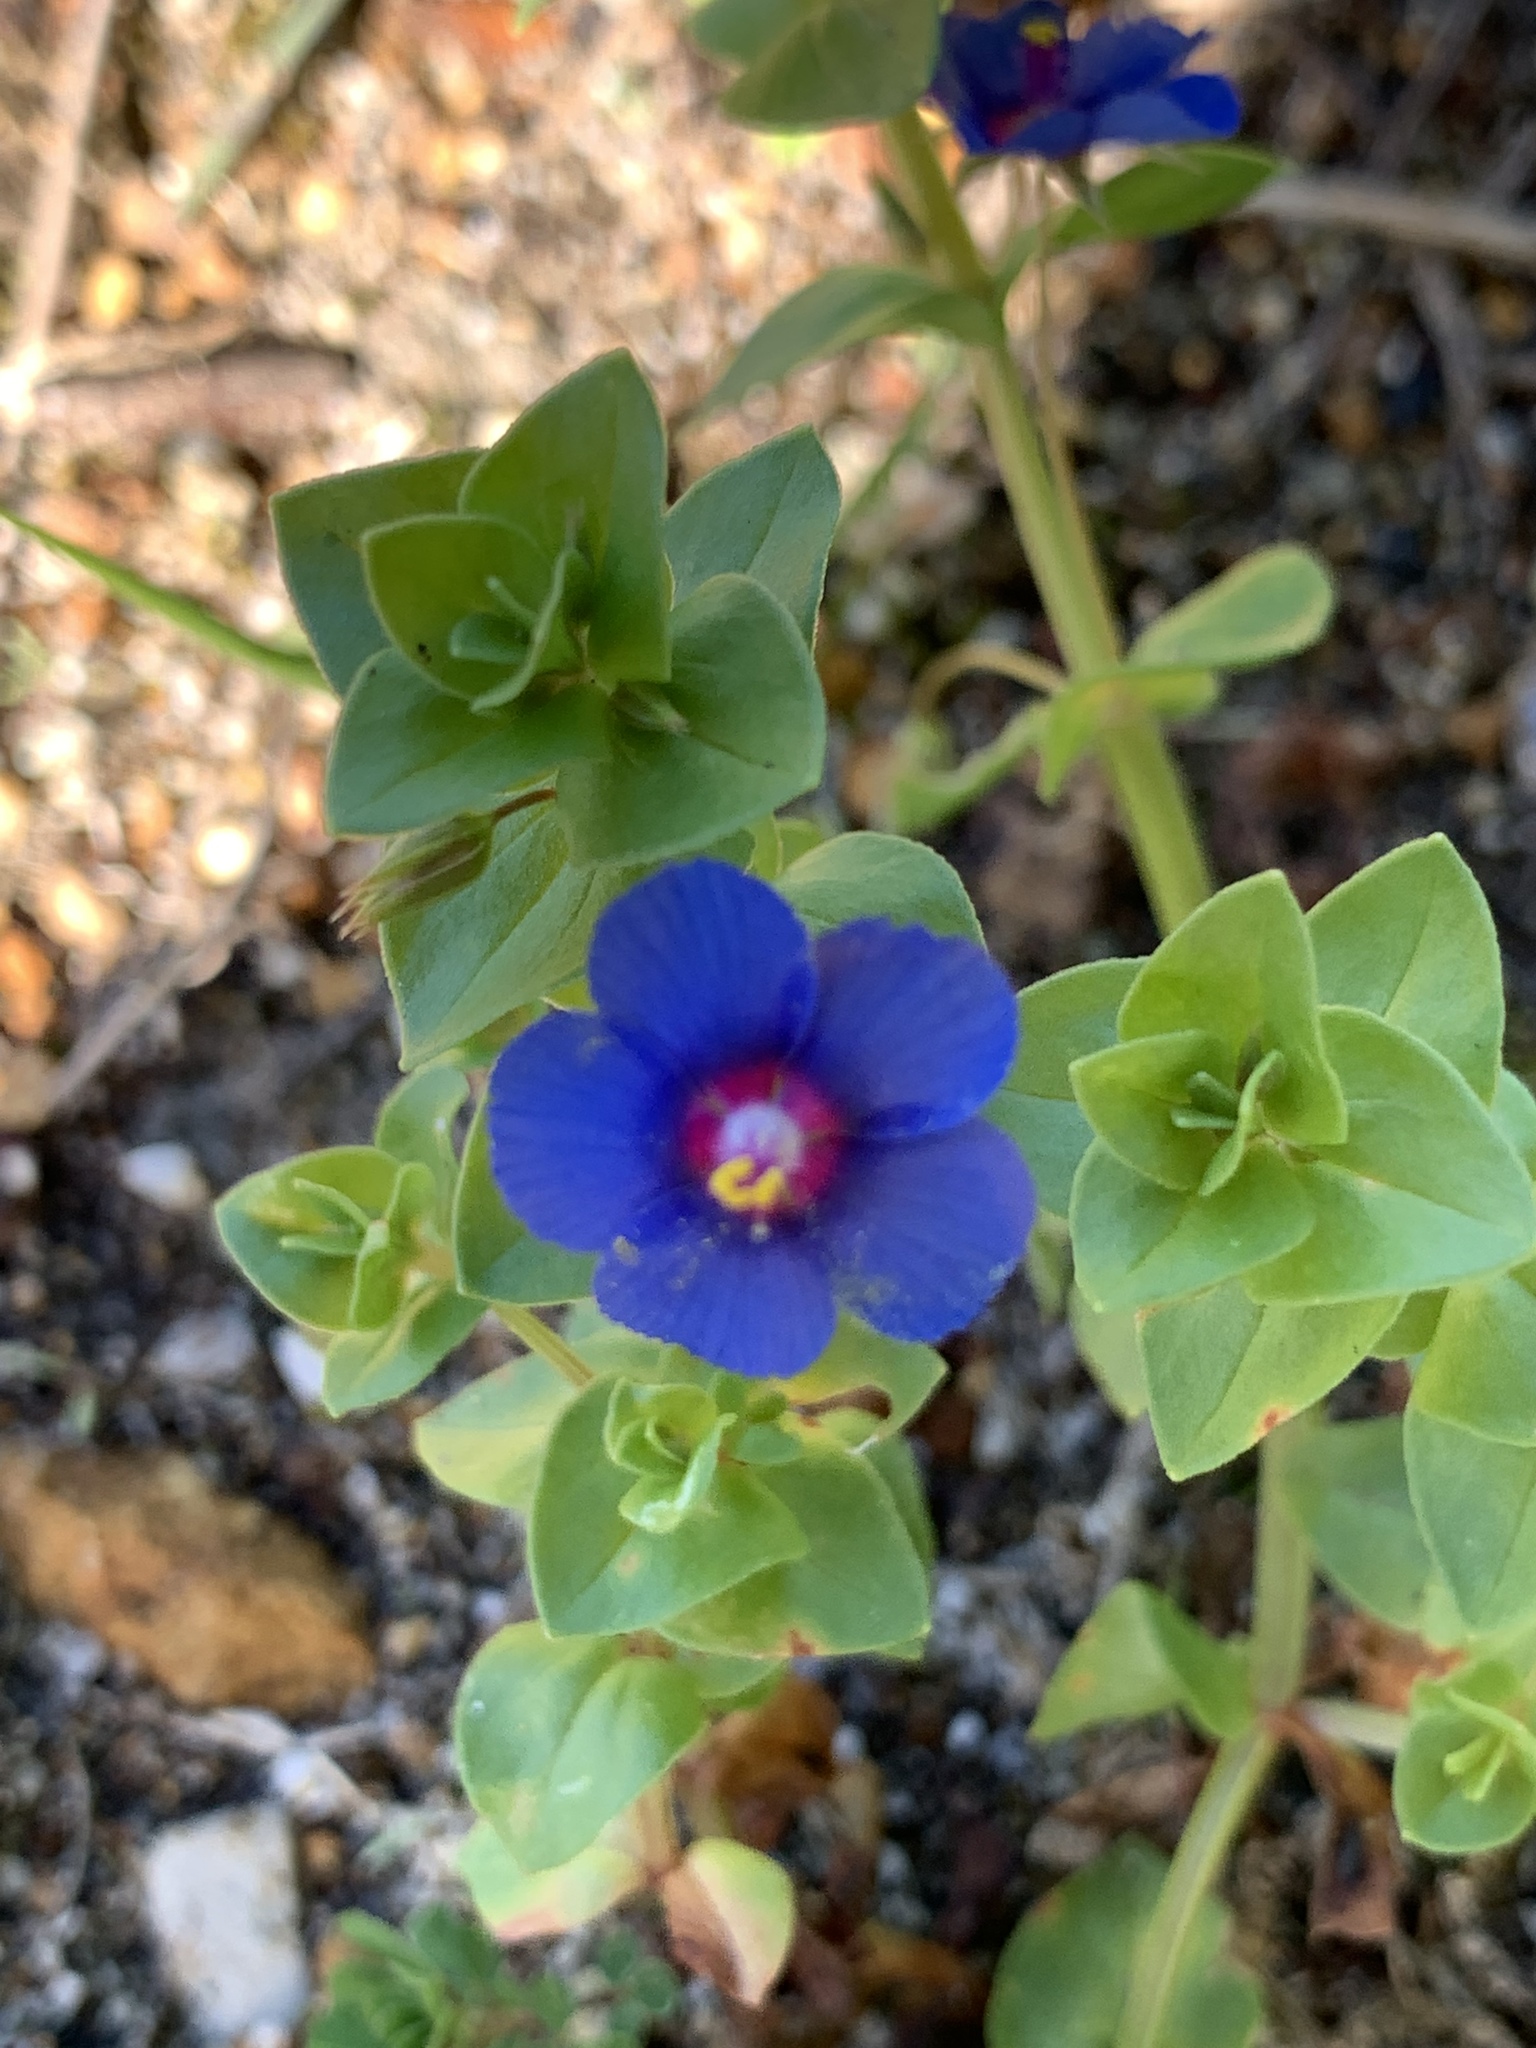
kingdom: Plantae
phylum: Tracheophyta
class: Magnoliopsida
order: Ericales
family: Primulaceae
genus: Lysimachia
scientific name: Lysimachia loeflingii
